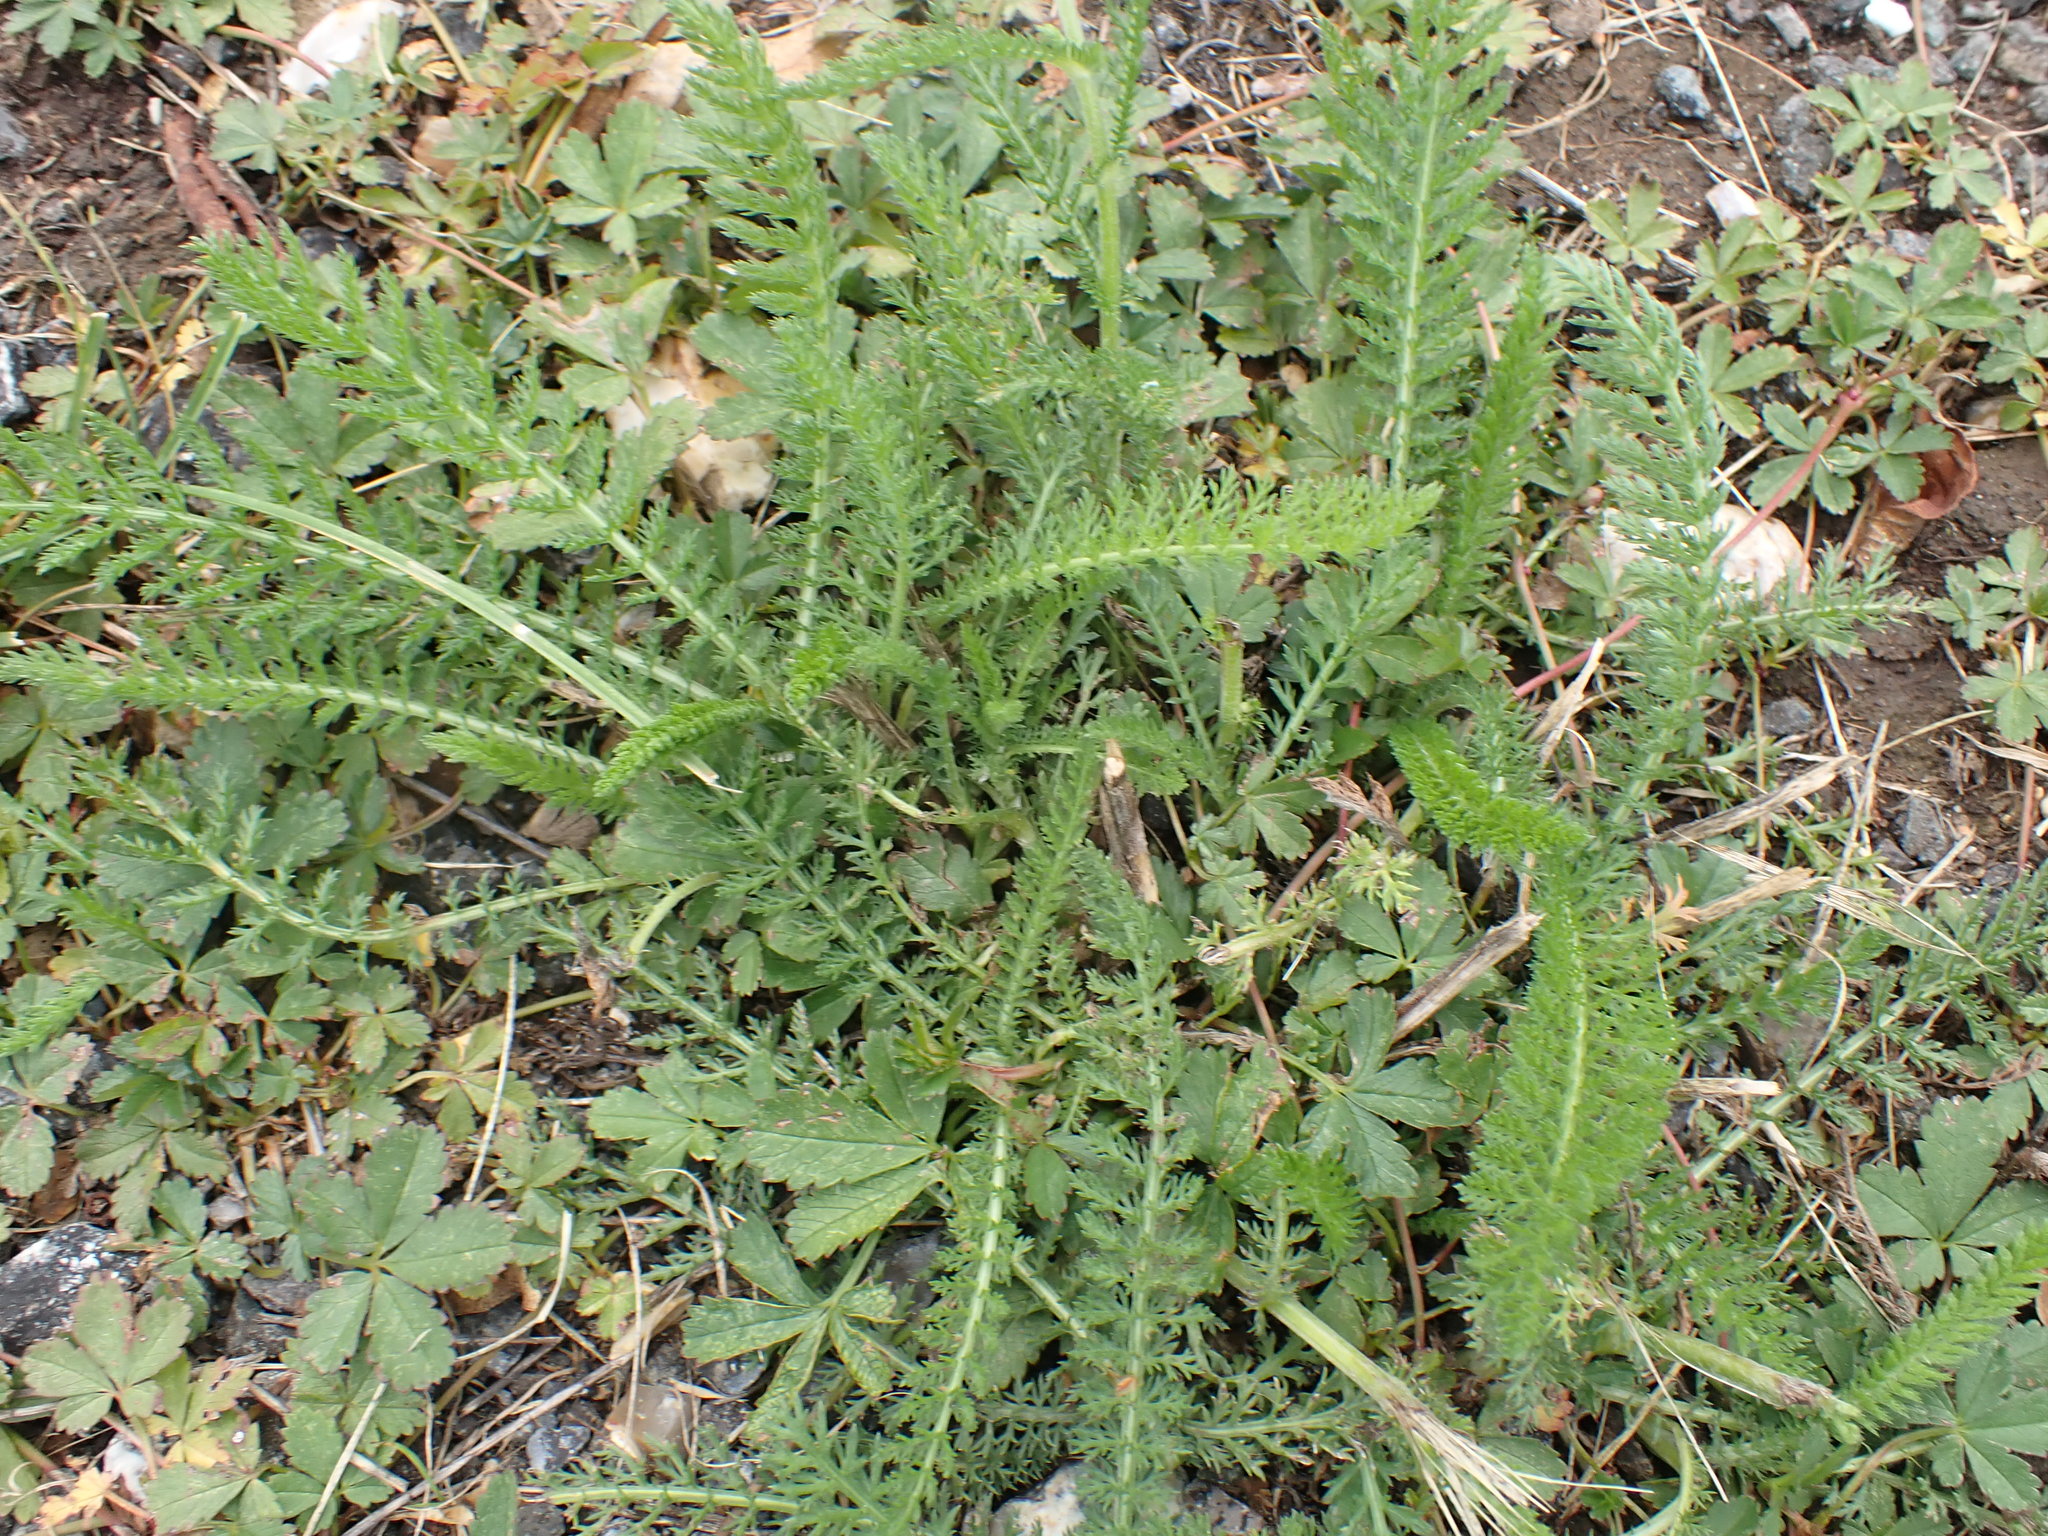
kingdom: Plantae
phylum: Tracheophyta
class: Magnoliopsida
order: Asterales
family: Asteraceae
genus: Achillea
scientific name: Achillea millefolium
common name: Yarrow
